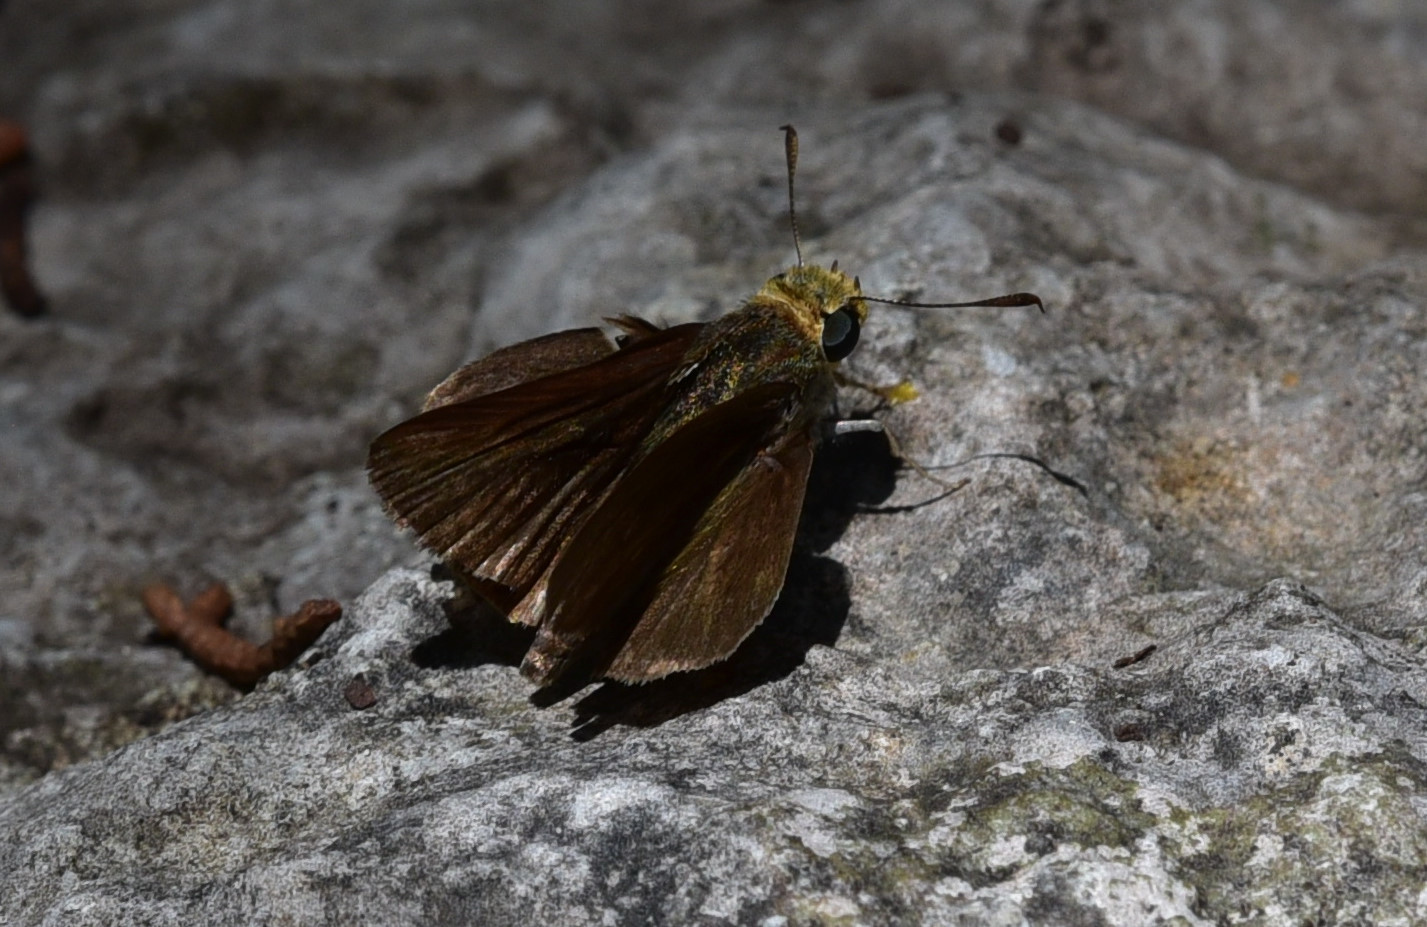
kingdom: Animalia
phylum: Arthropoda
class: Insecta
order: Lepidoptera
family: Hesperiidae
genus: Euphyes
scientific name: Euphyes vestris
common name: Dun skipper
